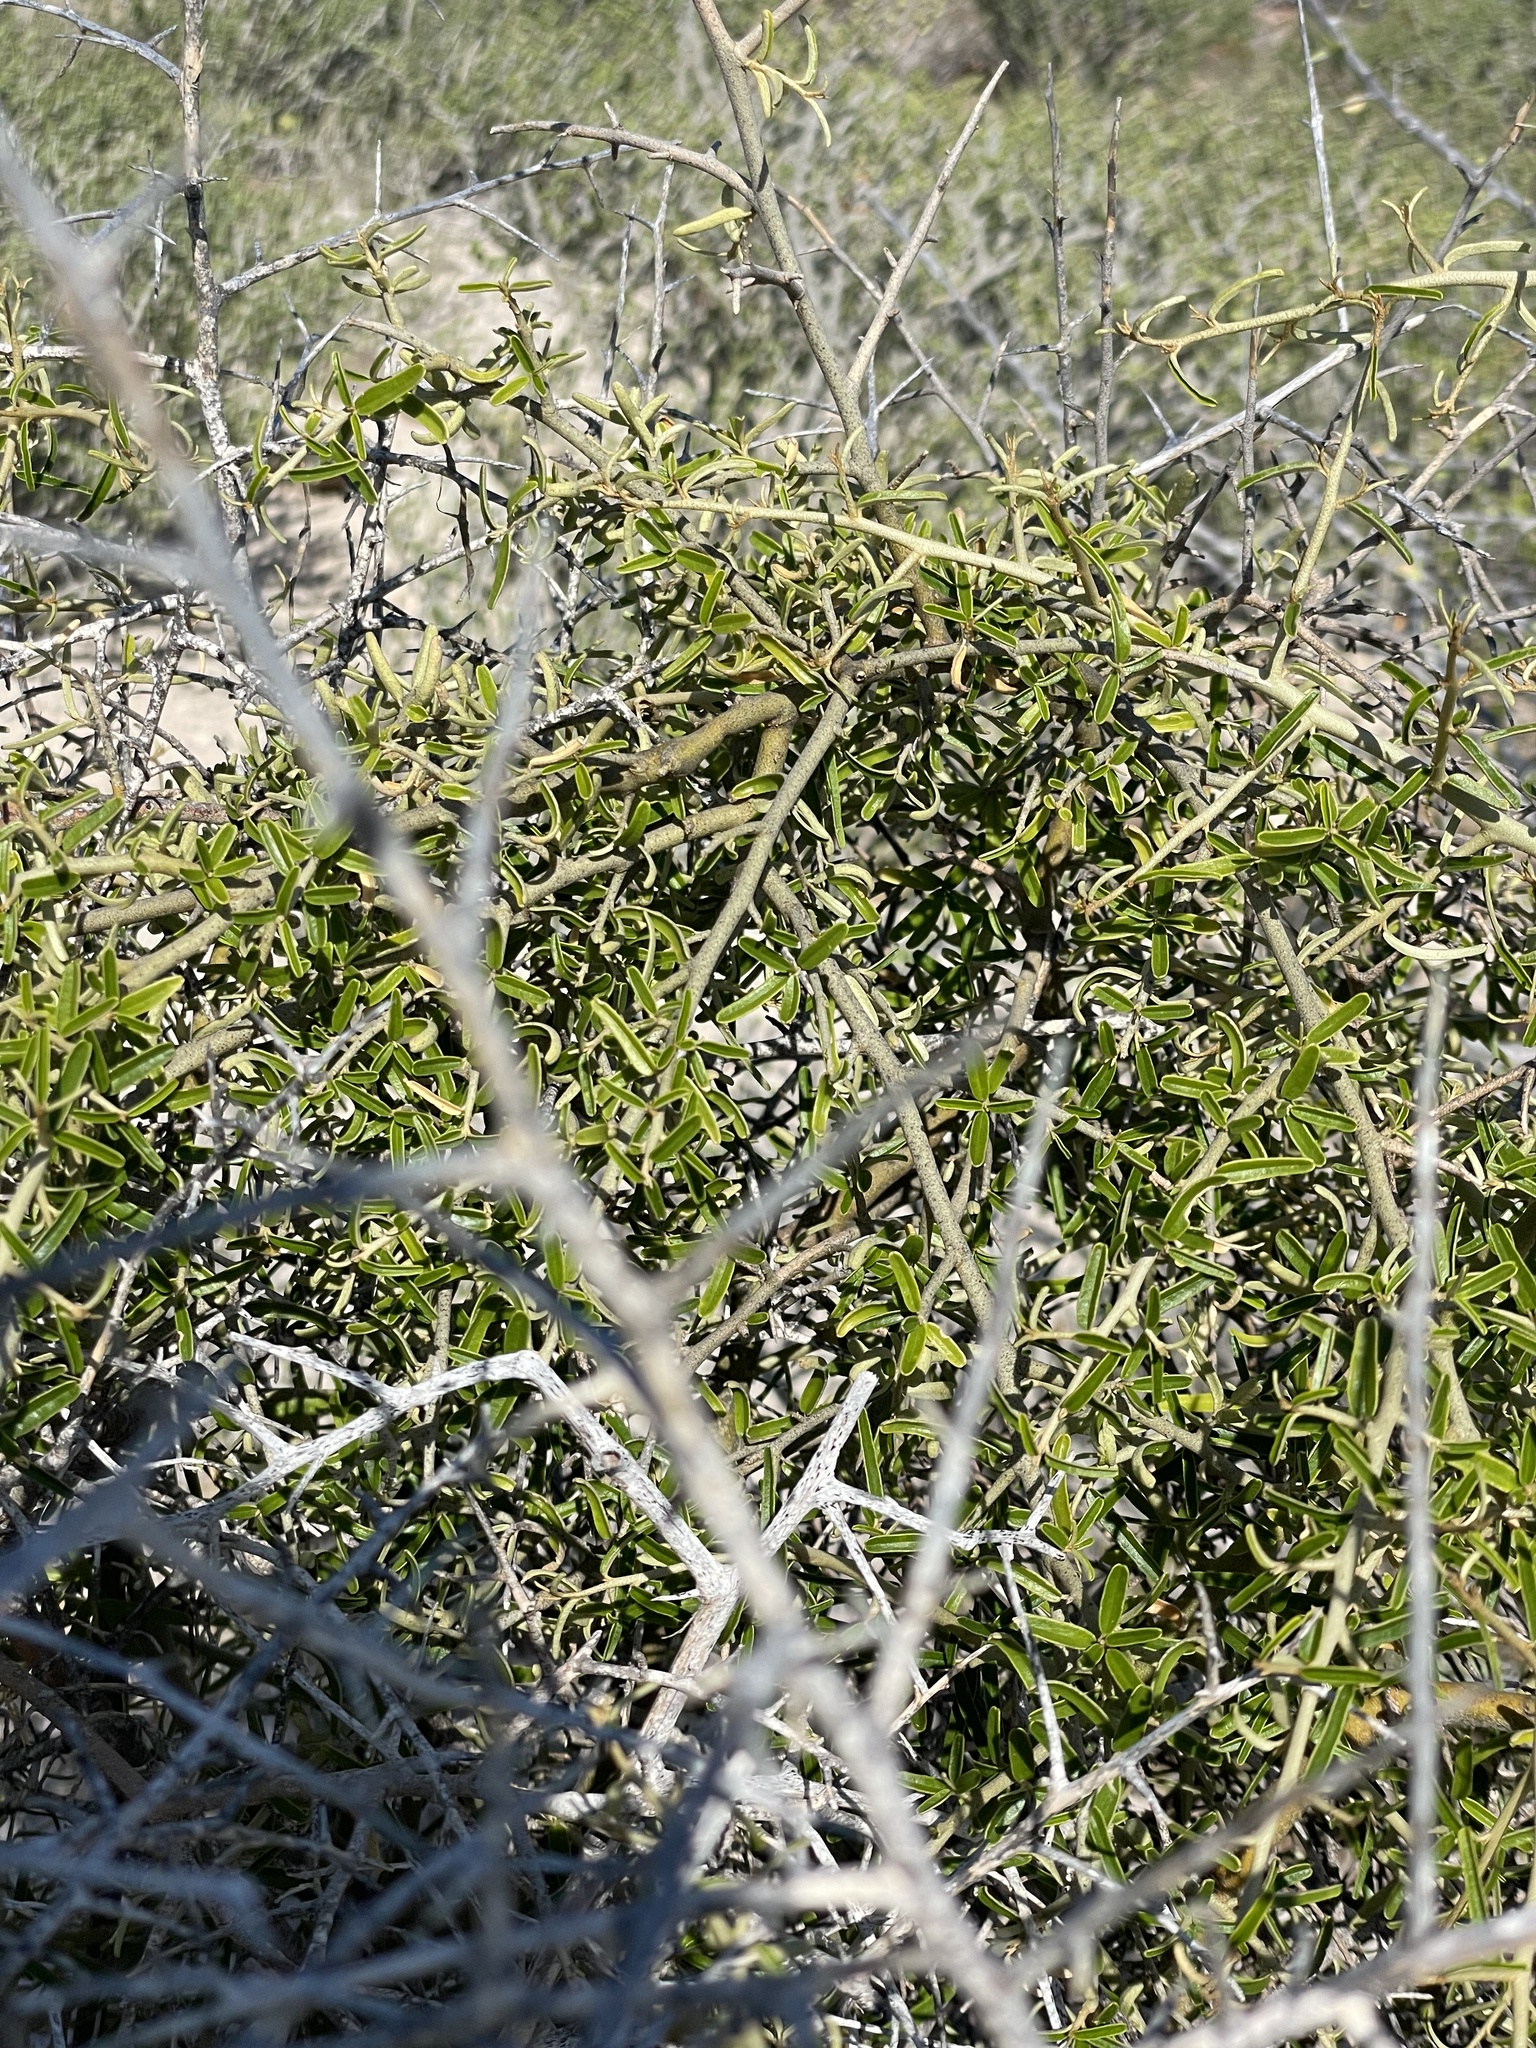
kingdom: Plantae
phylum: Tracheophyta
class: Magnoliopsida
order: Brassicales
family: Capparaceae
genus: Atamisquea
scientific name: Atamisquea emarginata
